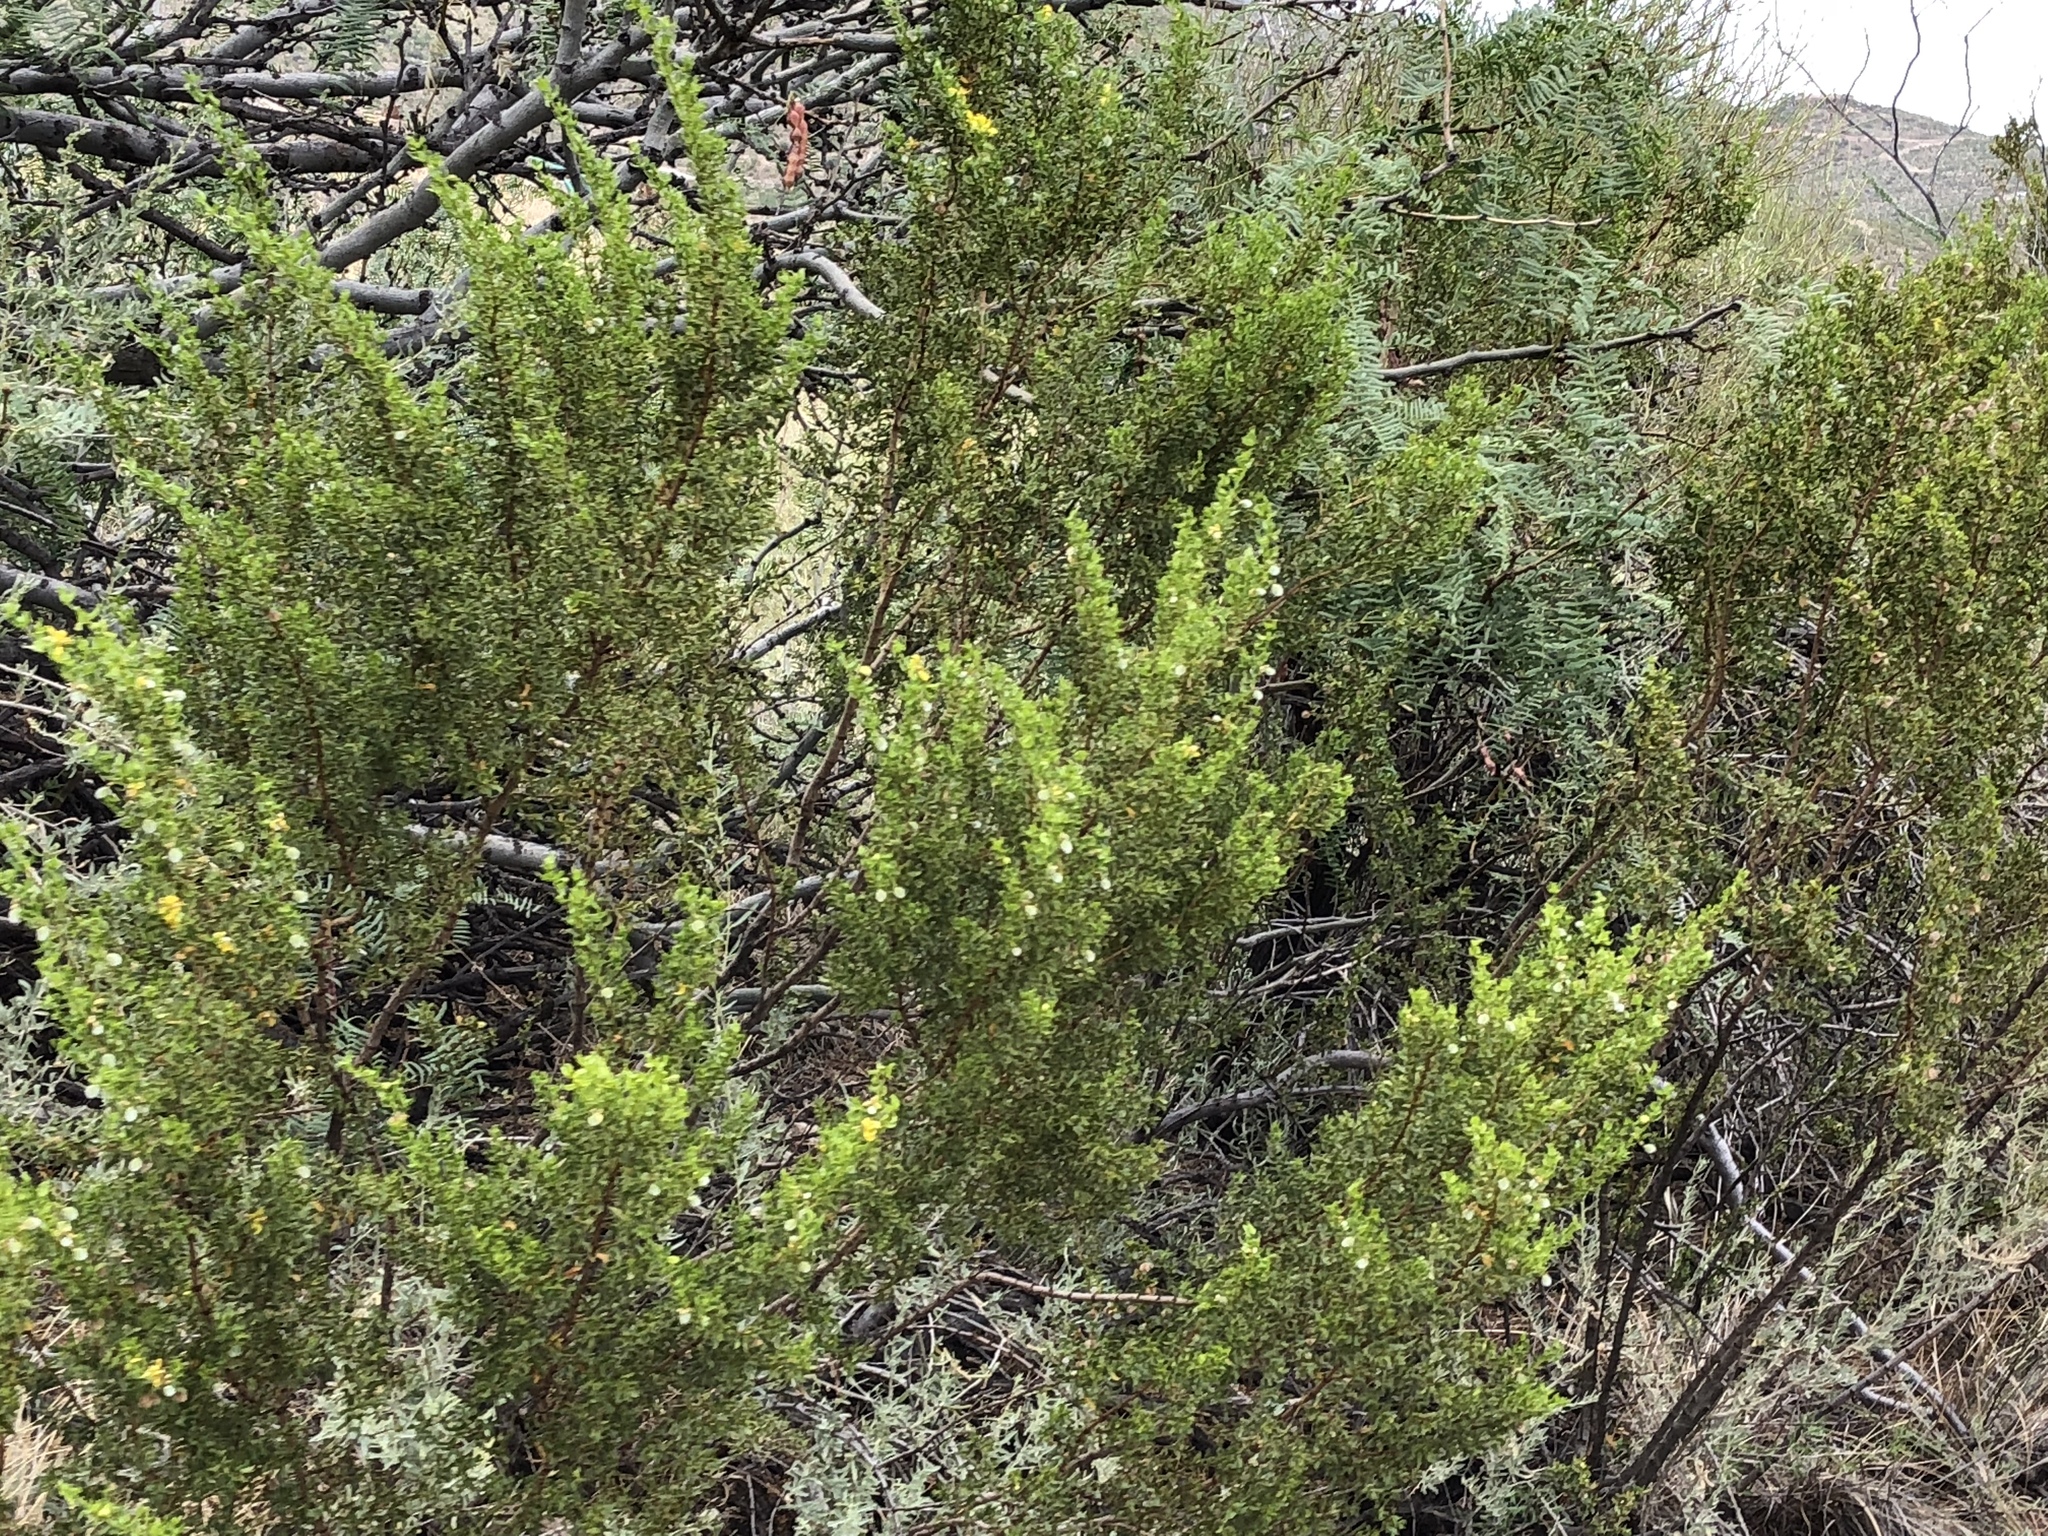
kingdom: Plantae
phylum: Tracheophyta
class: Magnoliopsida
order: Zygophyllales
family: Zygophyllaceae
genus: Larrea
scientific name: Larrea tridentata
